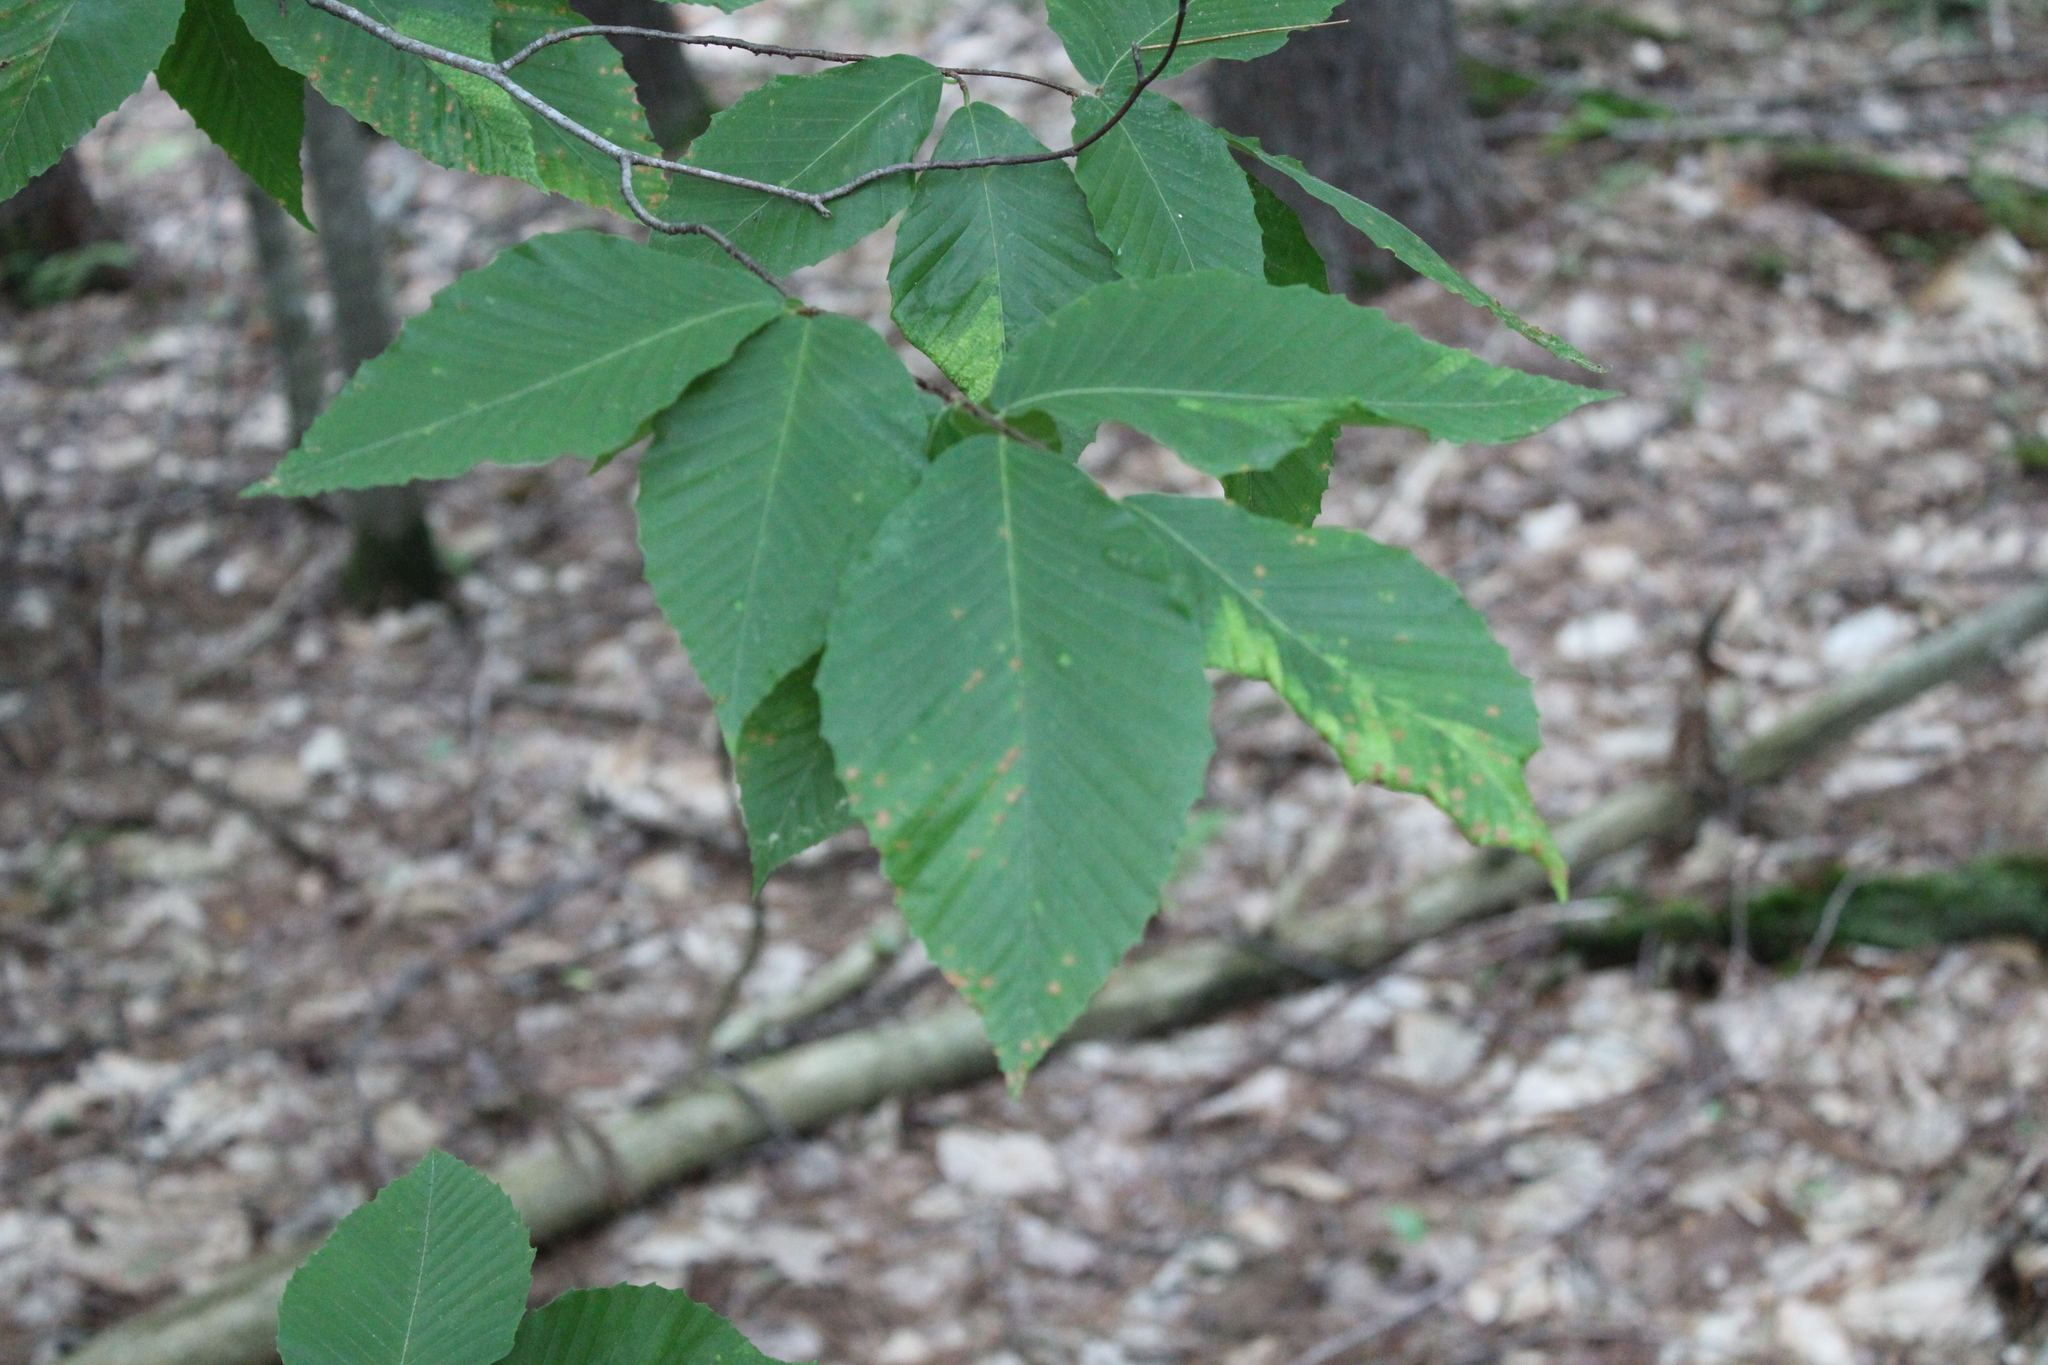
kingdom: Plantae
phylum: Tracheophyta
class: Magnoliopsida
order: Fagales
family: Fagaceae
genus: Fagus
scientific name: Fagus grandifolia
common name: American beech
